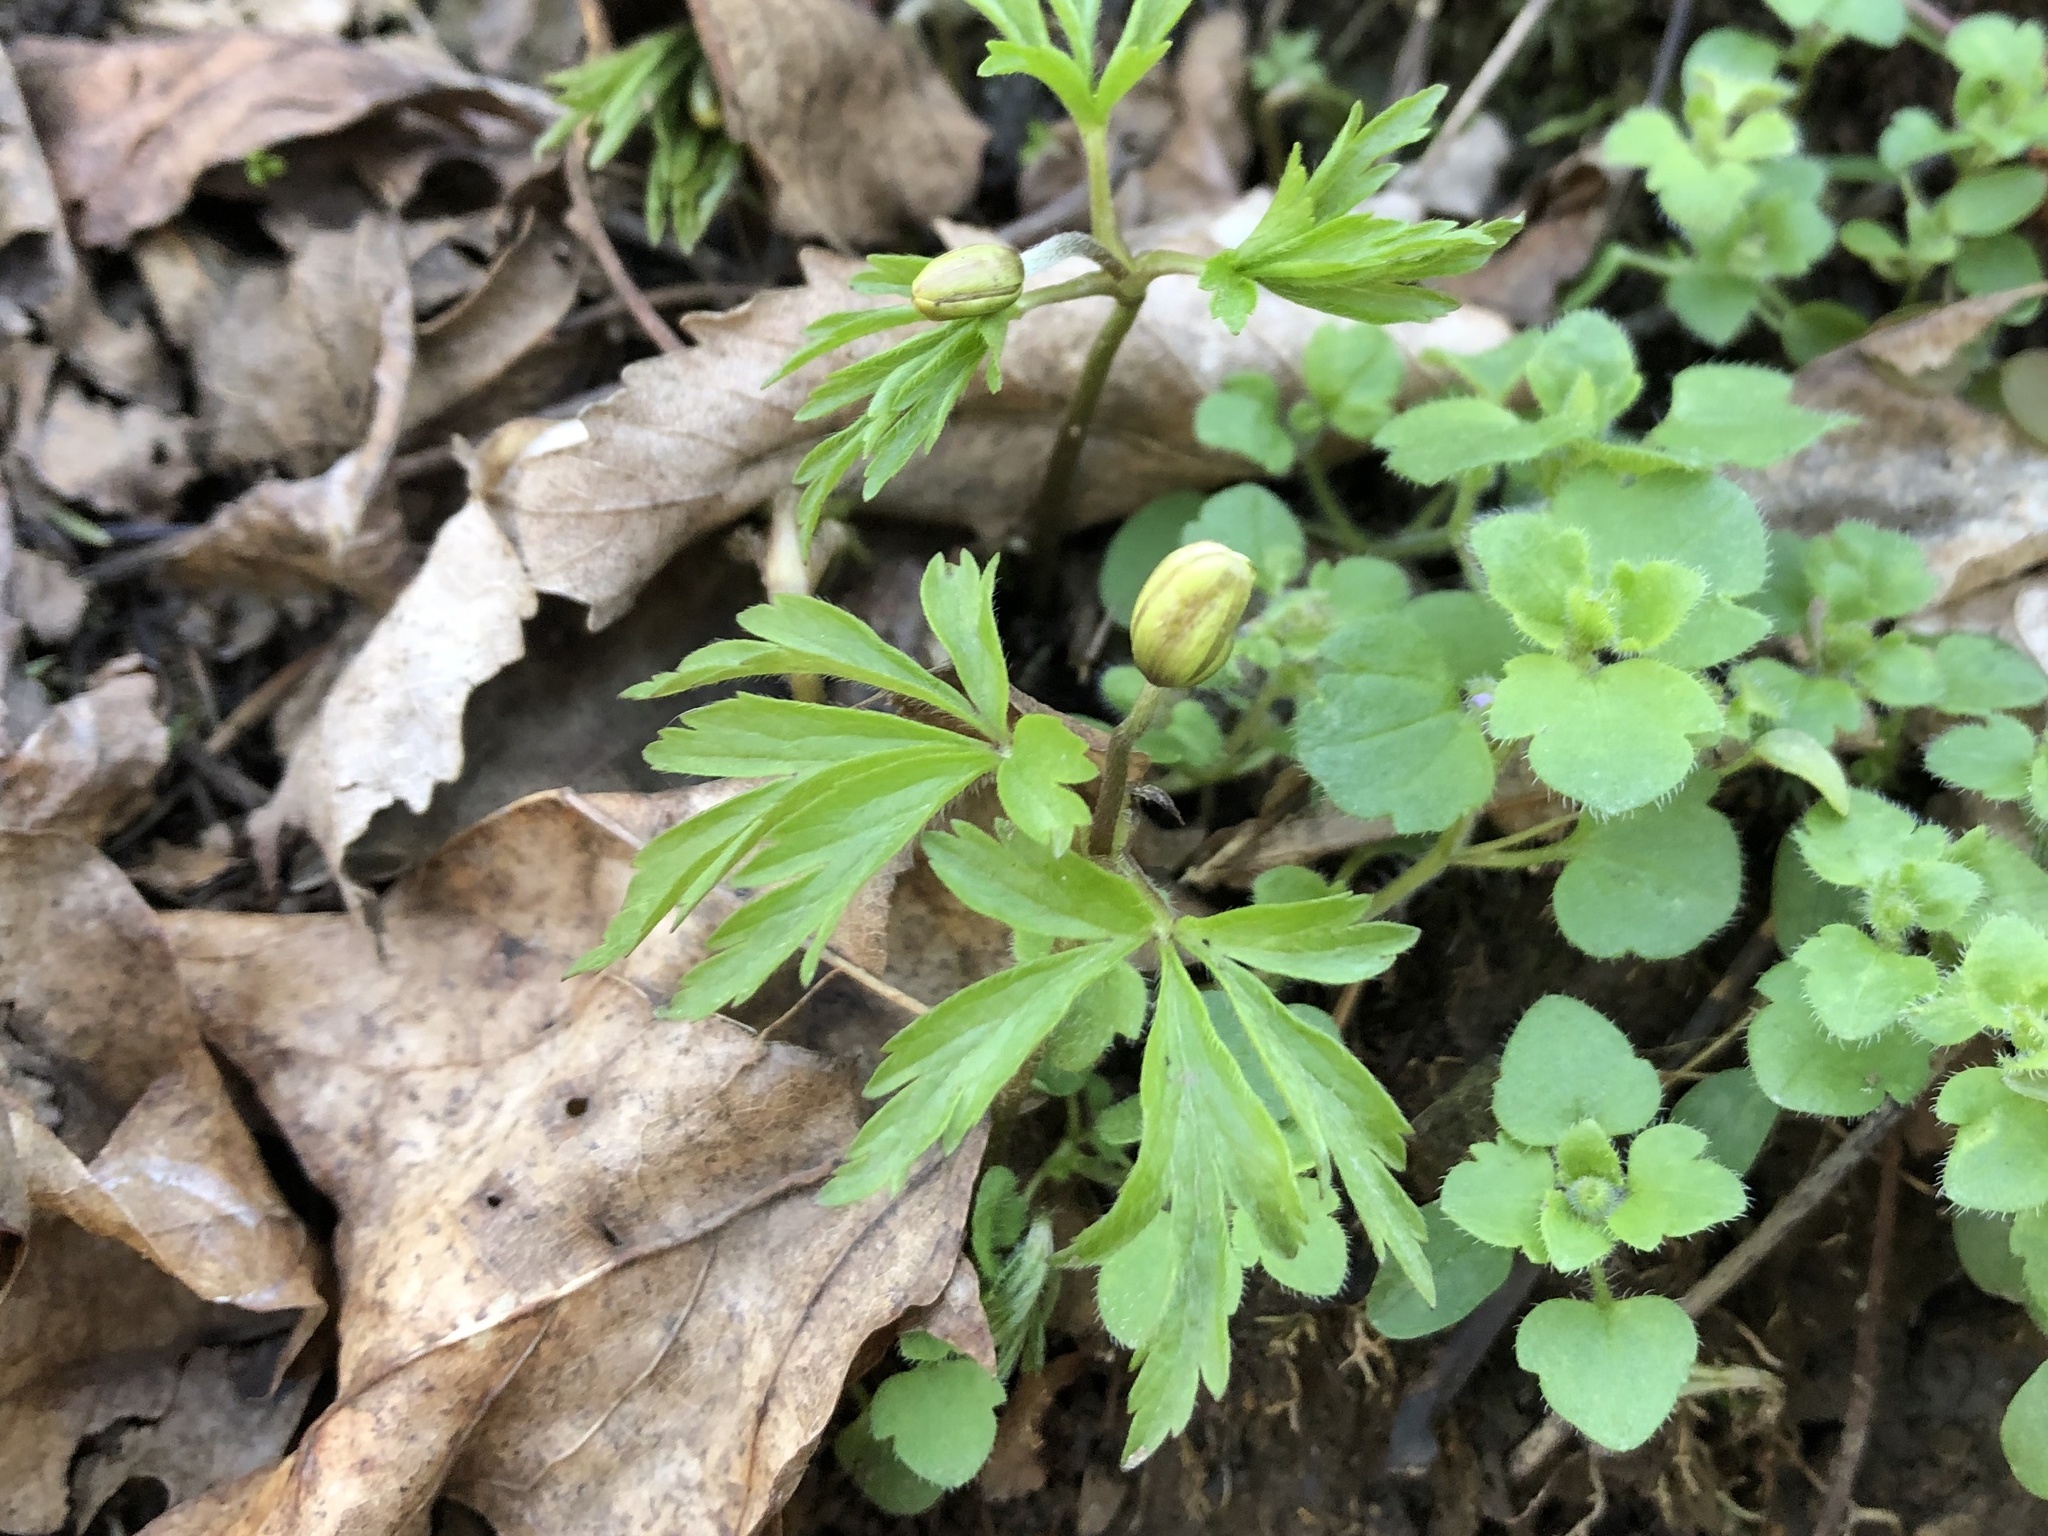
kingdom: Plantae
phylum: Tracheophyta
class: Magnoliopsida
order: Ranunculales
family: Ranunculaceae
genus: Anemone
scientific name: Anemone nemorosa
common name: Wood anemone
